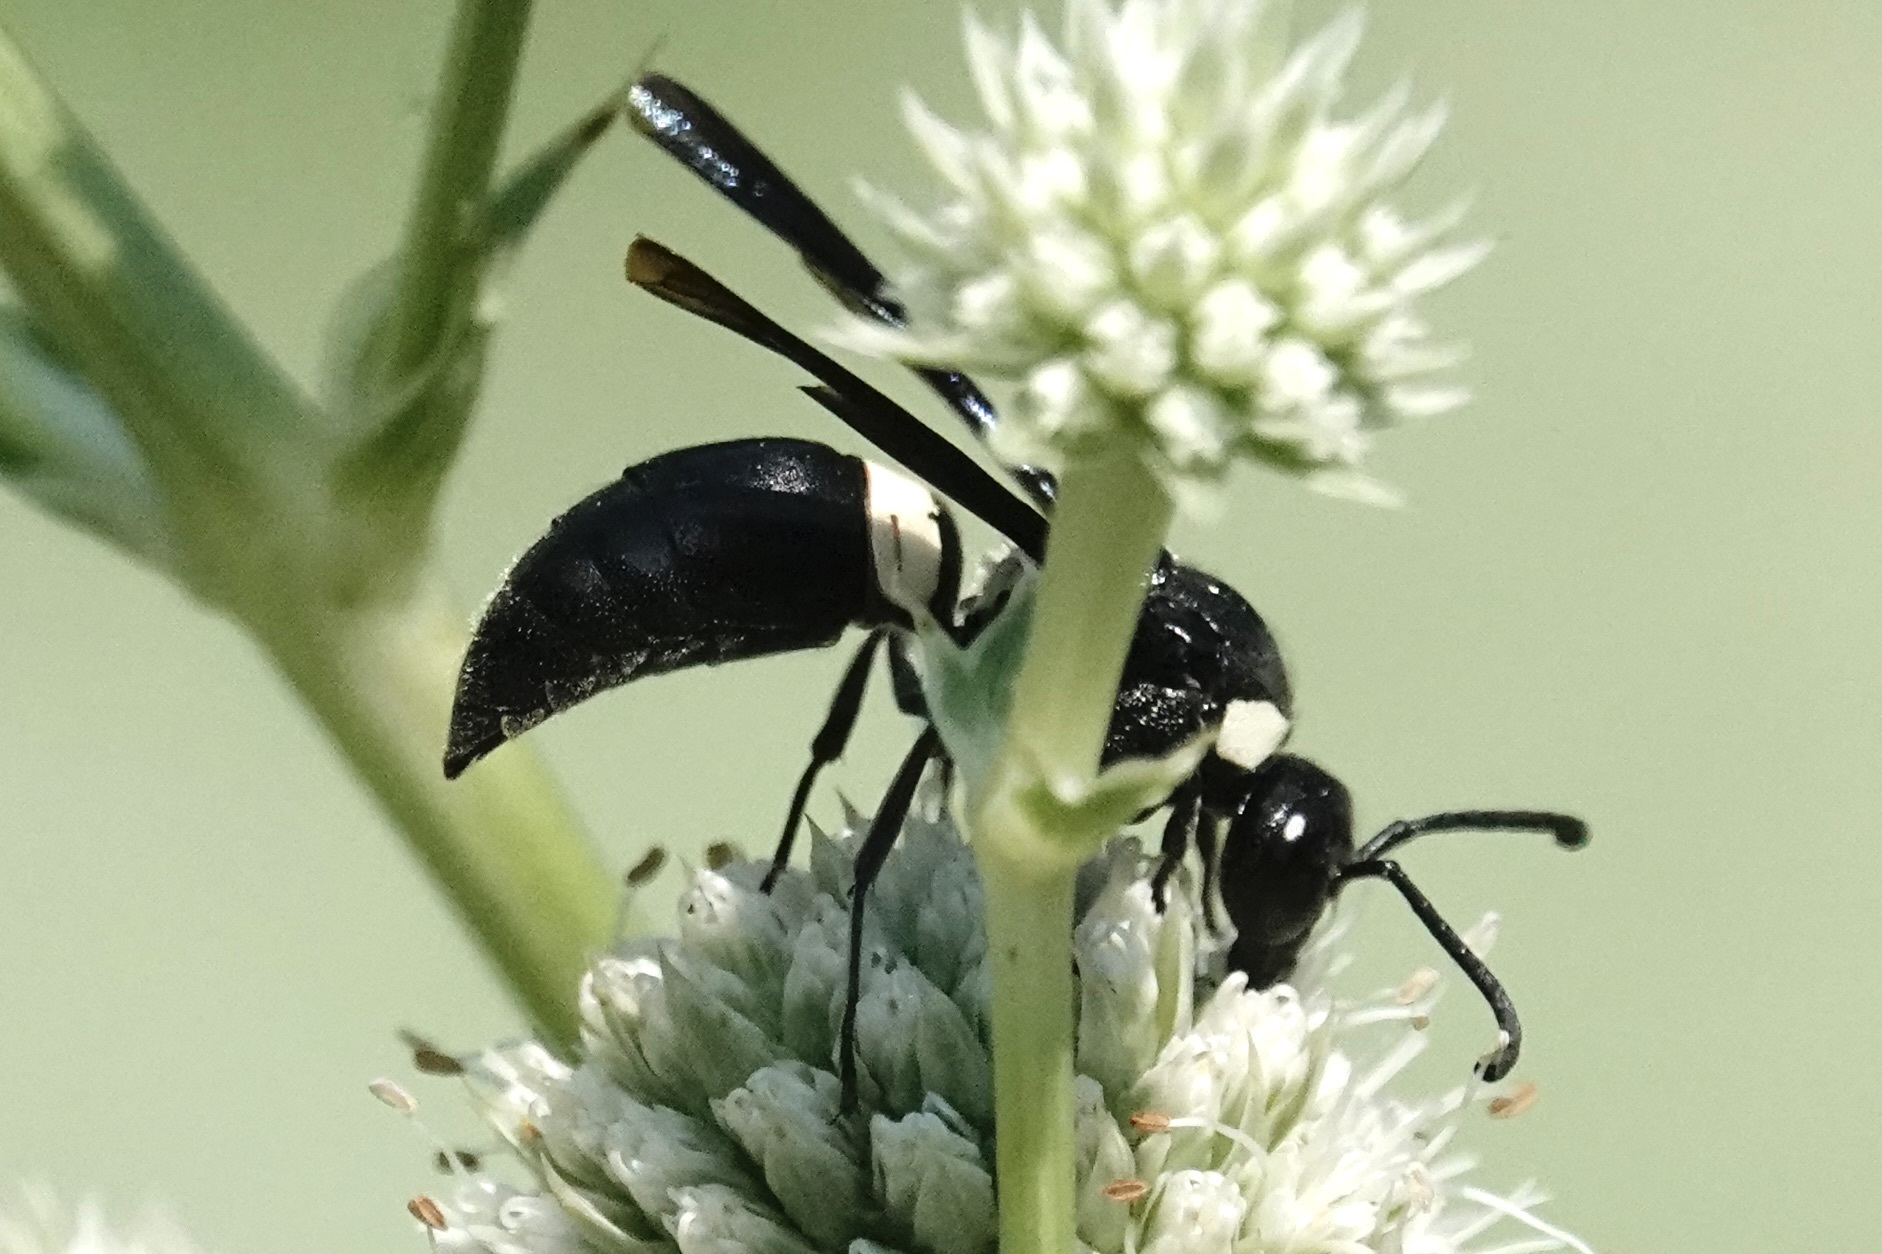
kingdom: Animalia
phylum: Arthropoda
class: Insecta
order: Hymenoptera
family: Eumenidae
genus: Monobia
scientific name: Monobia quadridens
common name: Four-toothed mason wasp
